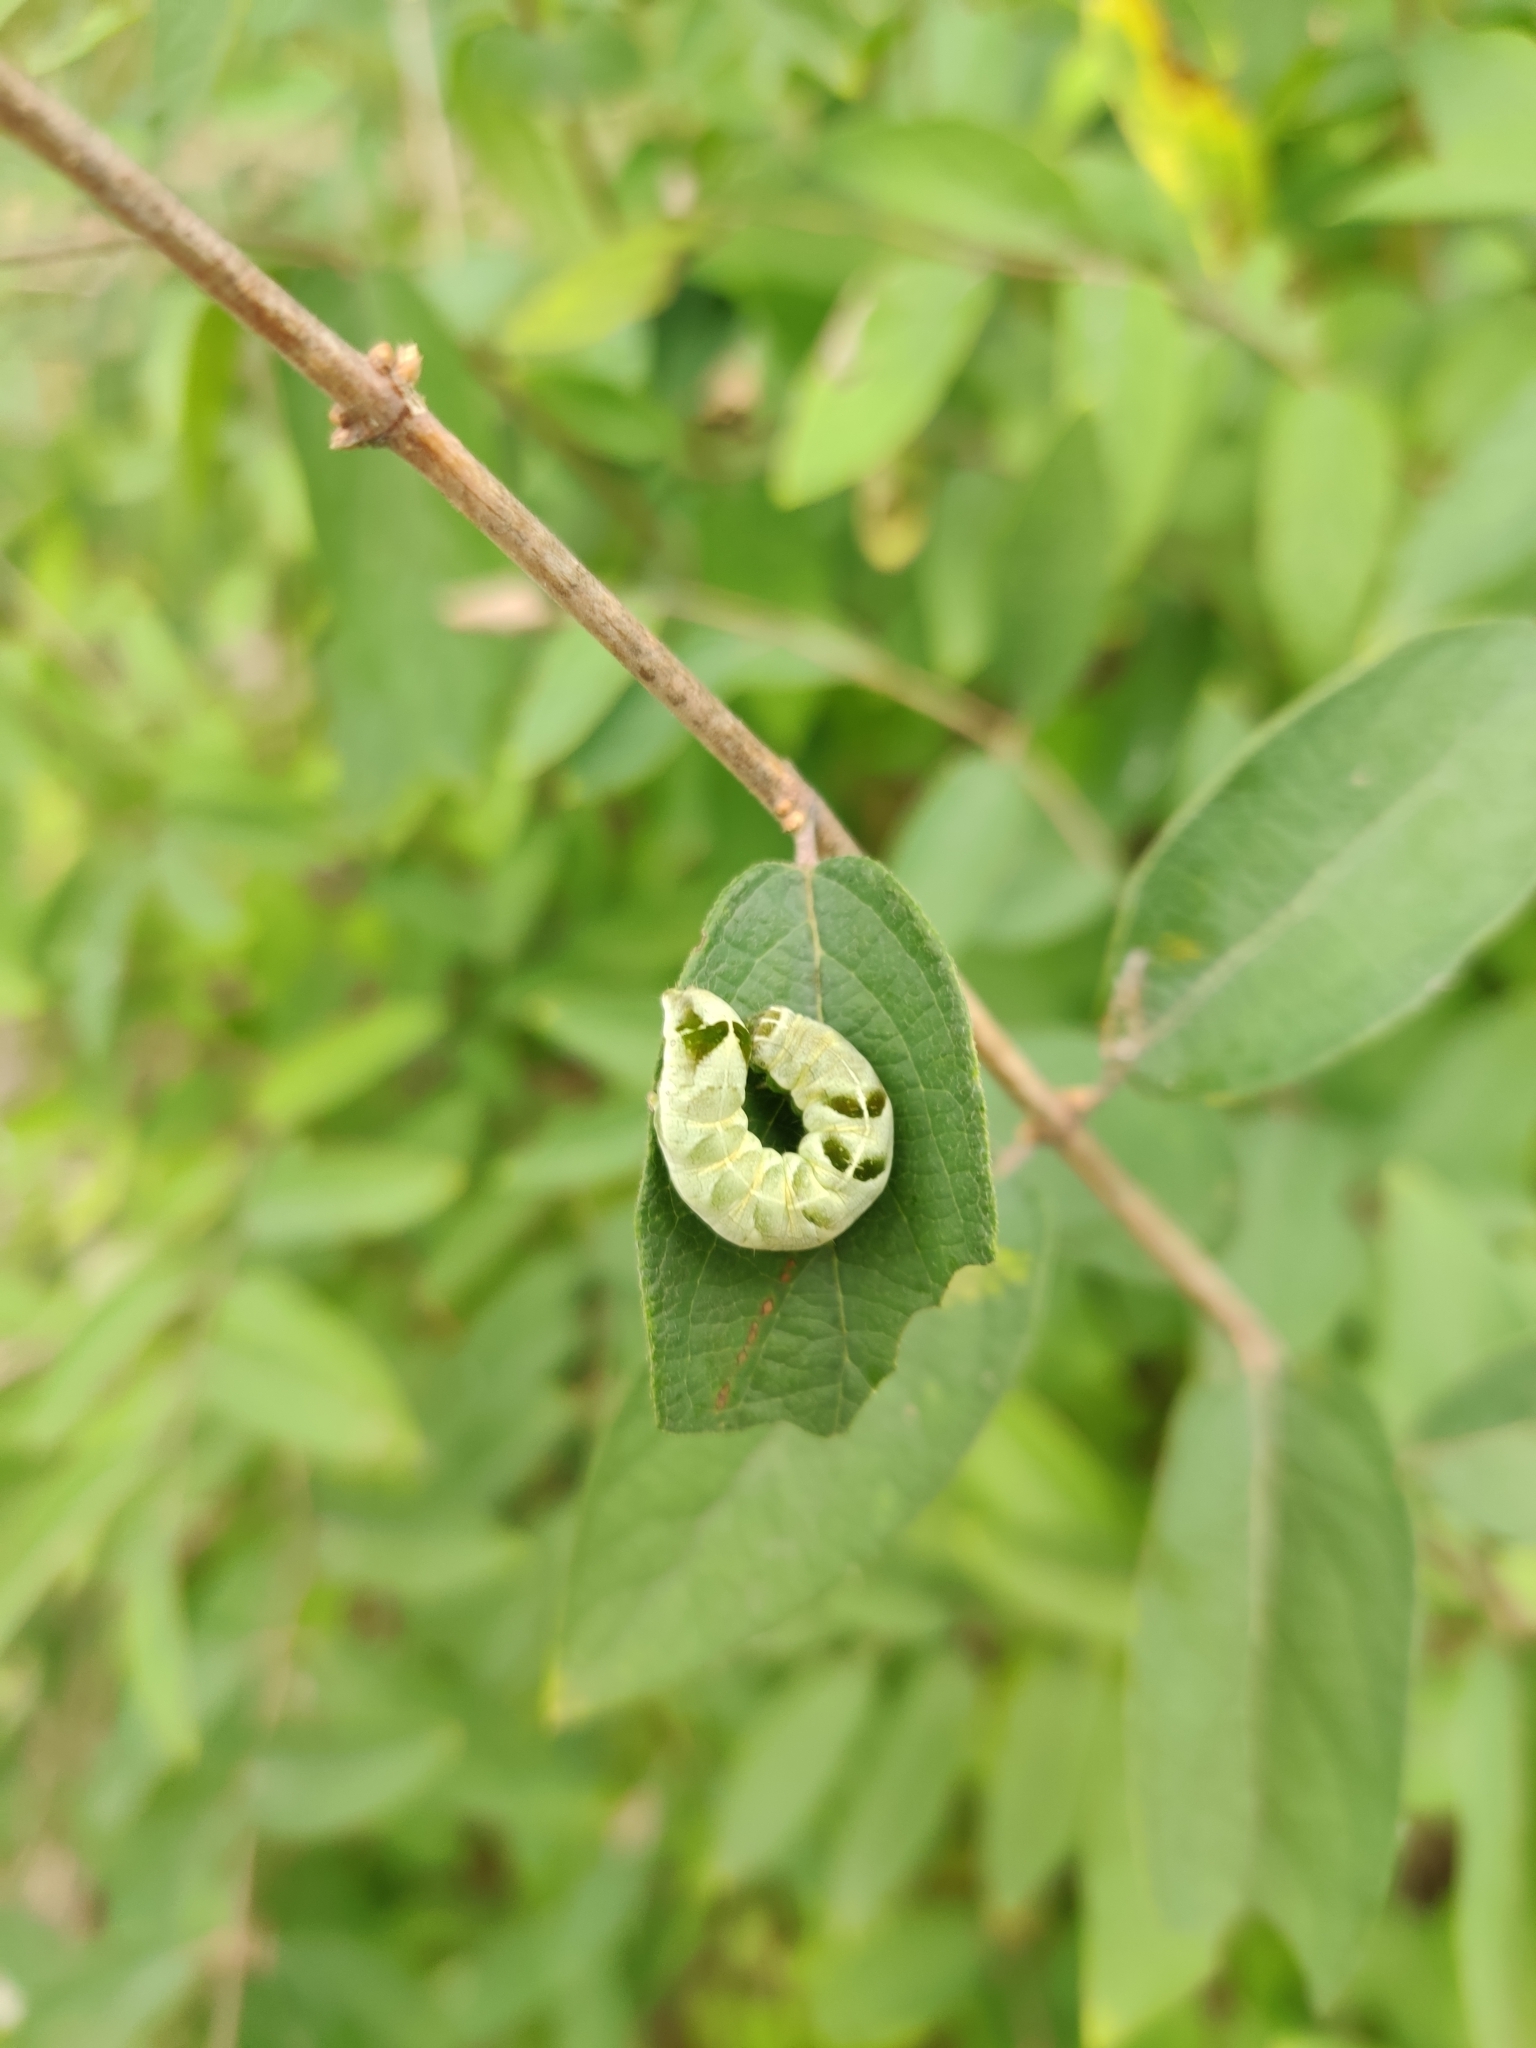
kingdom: Animalia
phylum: Arthropoda
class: Insecta
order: Lepidoptera
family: Noctuidae
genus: Melanchra
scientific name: Melanchra adjuncta
